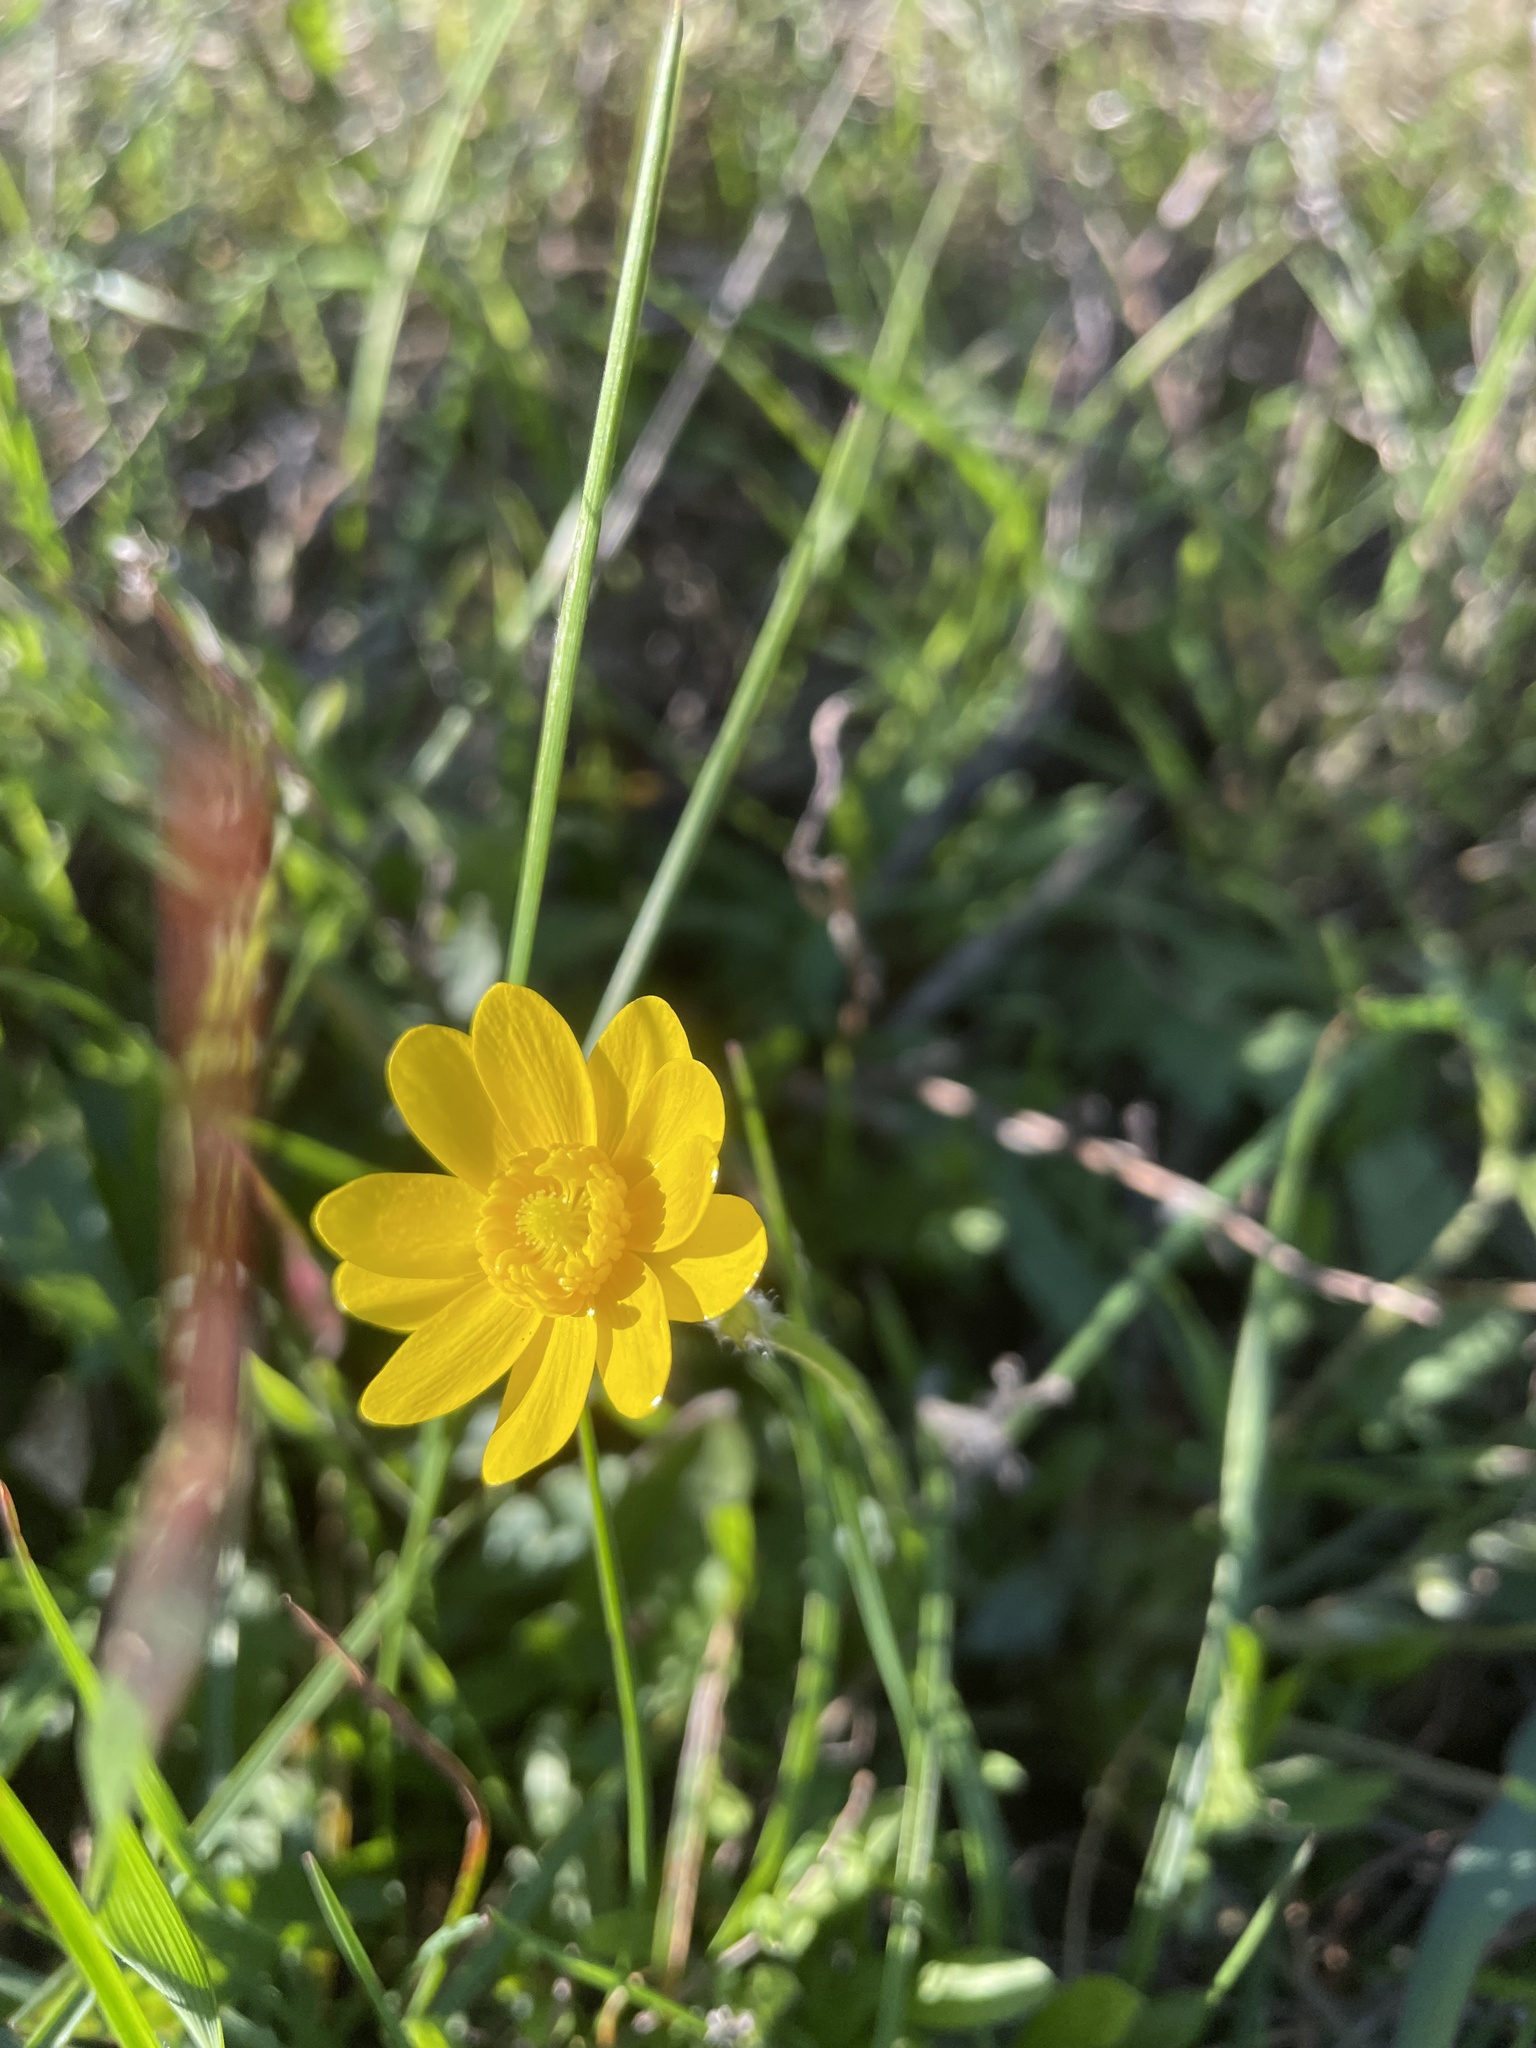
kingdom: Plantae
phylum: Tracheophyta
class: Magnoliopsida
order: Ranunculales
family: Ranunculaceae
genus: Ranunculus
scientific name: Ranunculus californicus
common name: California buttercup
